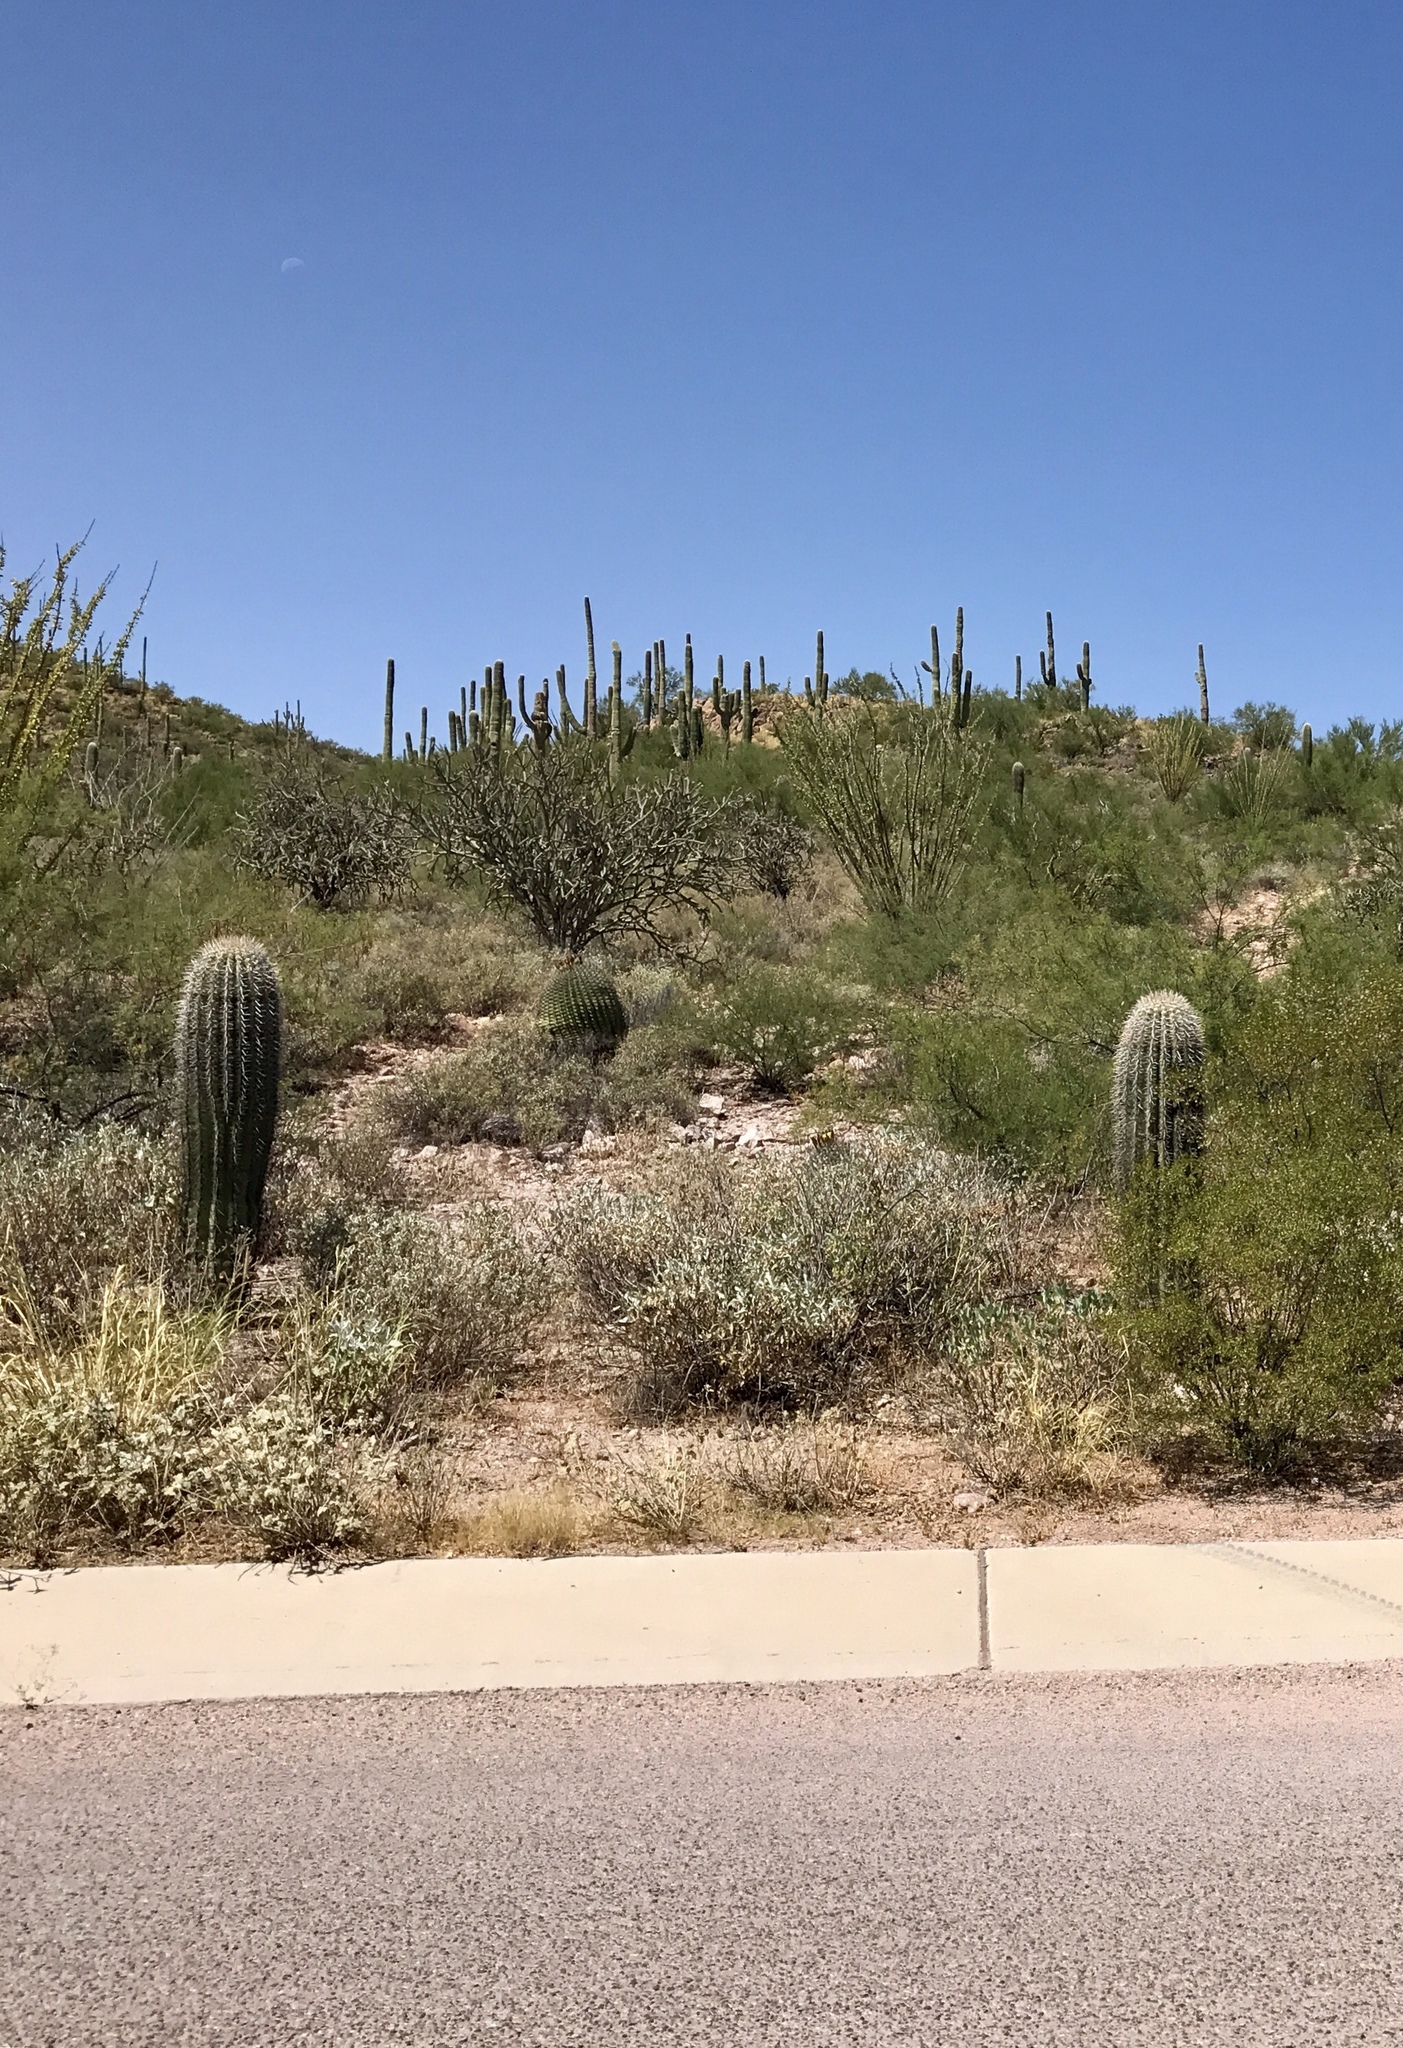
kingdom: Plantae
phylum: Tracheophyta
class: Magnoliopsida
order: Caryophyllales
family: Cactaceae
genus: Carnegiea
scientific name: Carnegiea gigantea
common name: Saguaro
